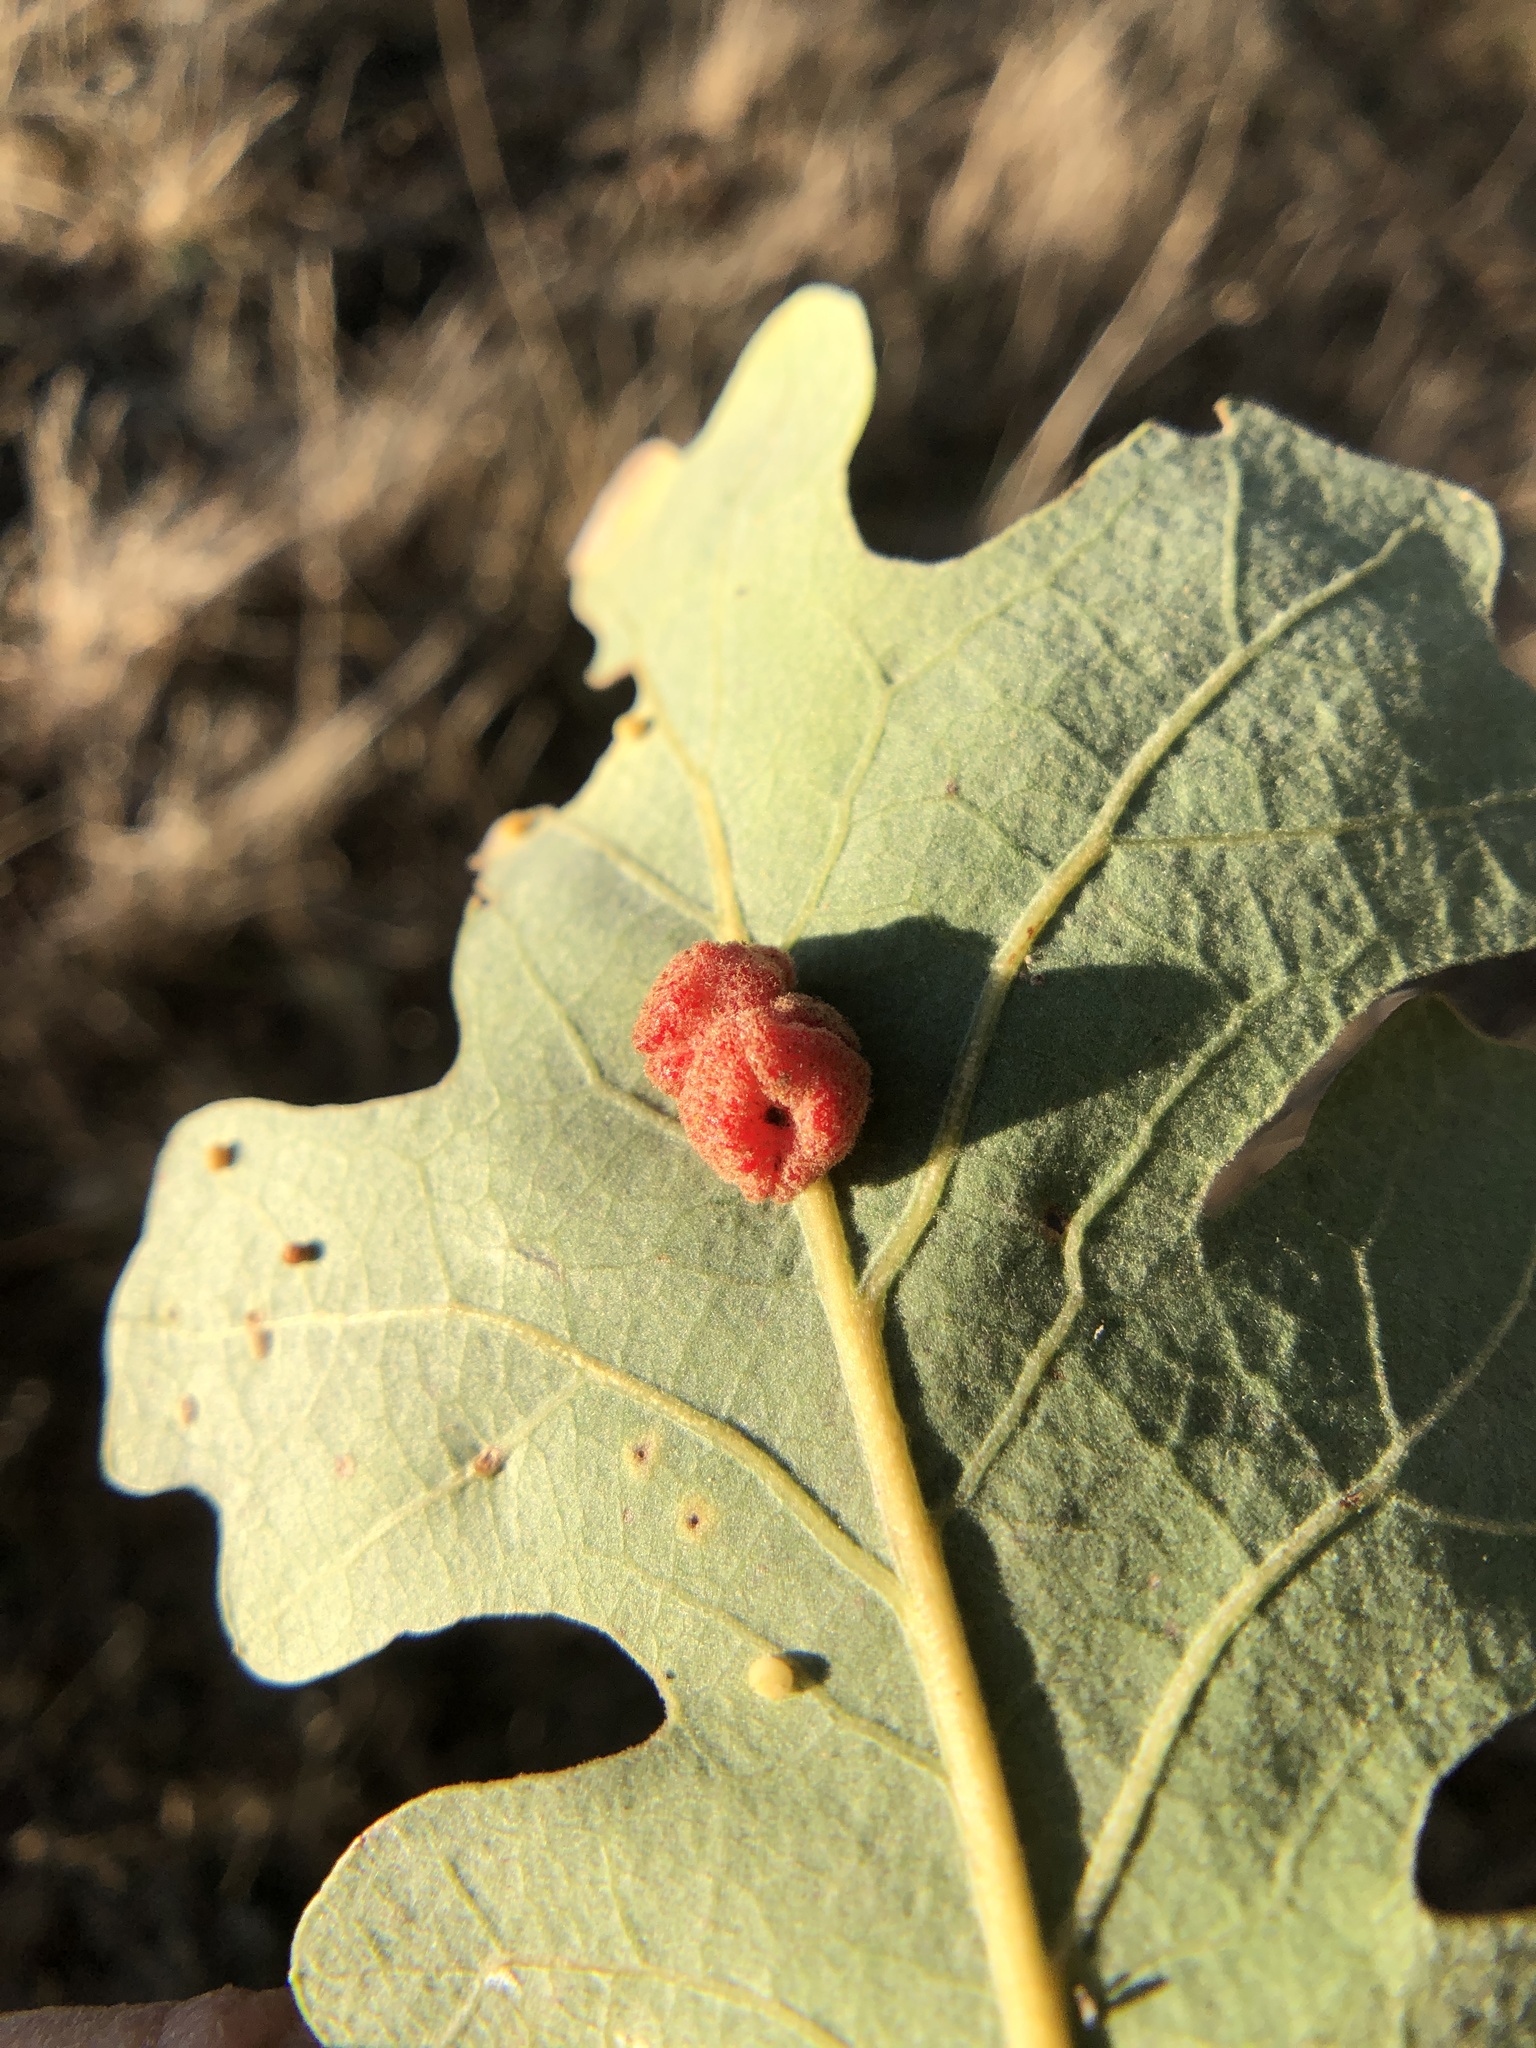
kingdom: Animalia
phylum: Arthropoda
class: Insecta
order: Hymenoptera
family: Cynipidae
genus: Andricus
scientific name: Andricus
